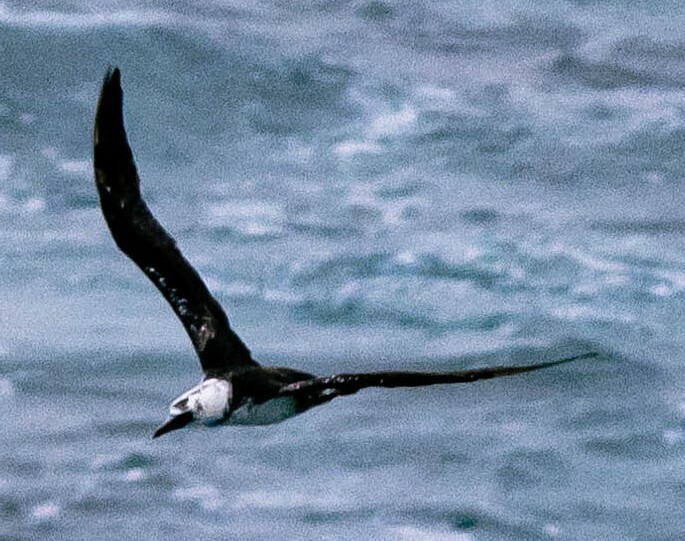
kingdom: Animalia
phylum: Chordata
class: Aves
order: Suliformes
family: Sulidae
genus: Morus
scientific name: Morus bassanus
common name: Northern gannet
